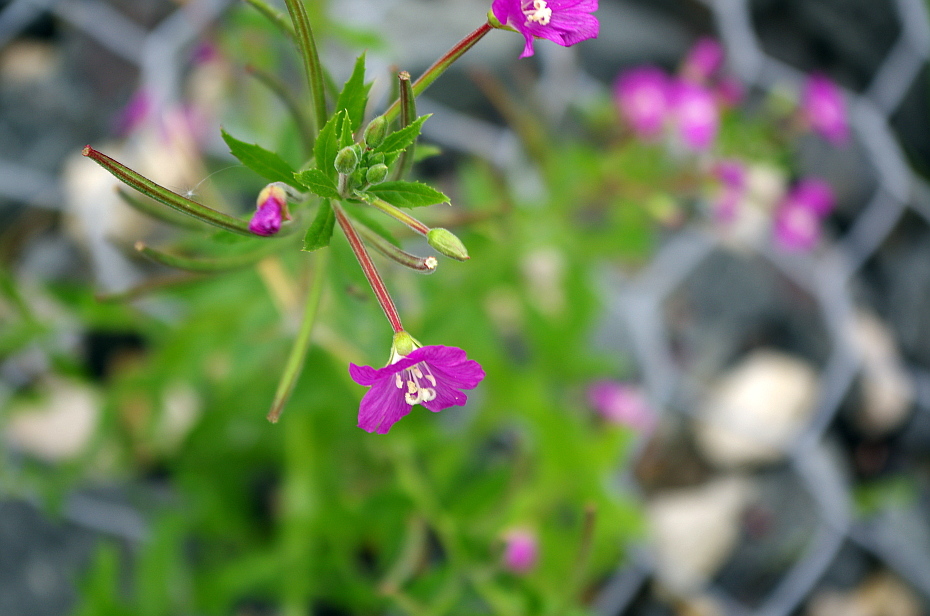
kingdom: Plantae
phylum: Tracheophyta
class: Magnoliopsida
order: Myrtales
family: Onagraceae
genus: Epilobium
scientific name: Epilobium hirsutum
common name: Great willowherb
